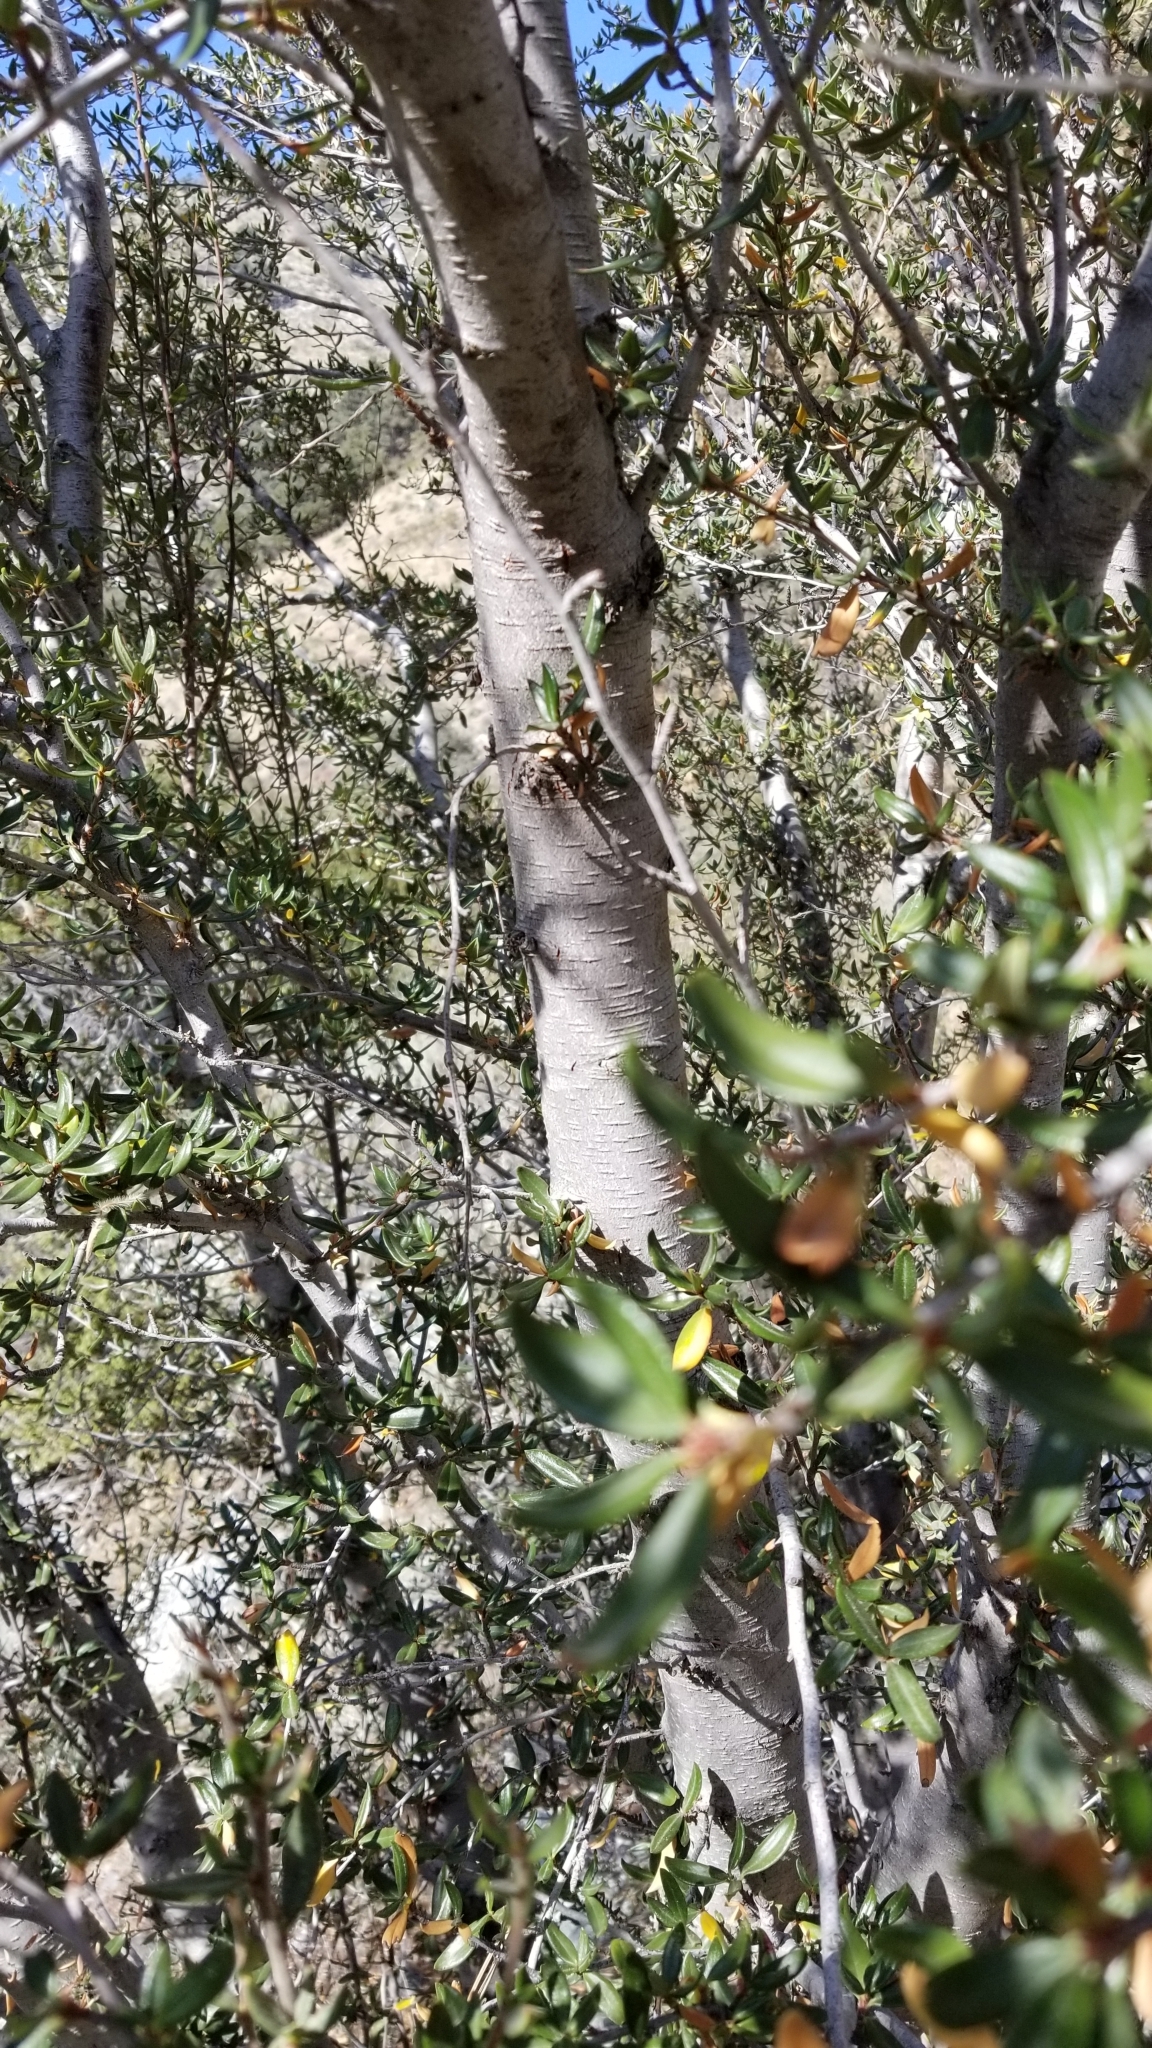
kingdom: Plantae
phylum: Tracheophyta
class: Magnoliopsida
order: Rosales
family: Rosaceae
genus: Cercocarpus
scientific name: Cercocarpus ledifolius
